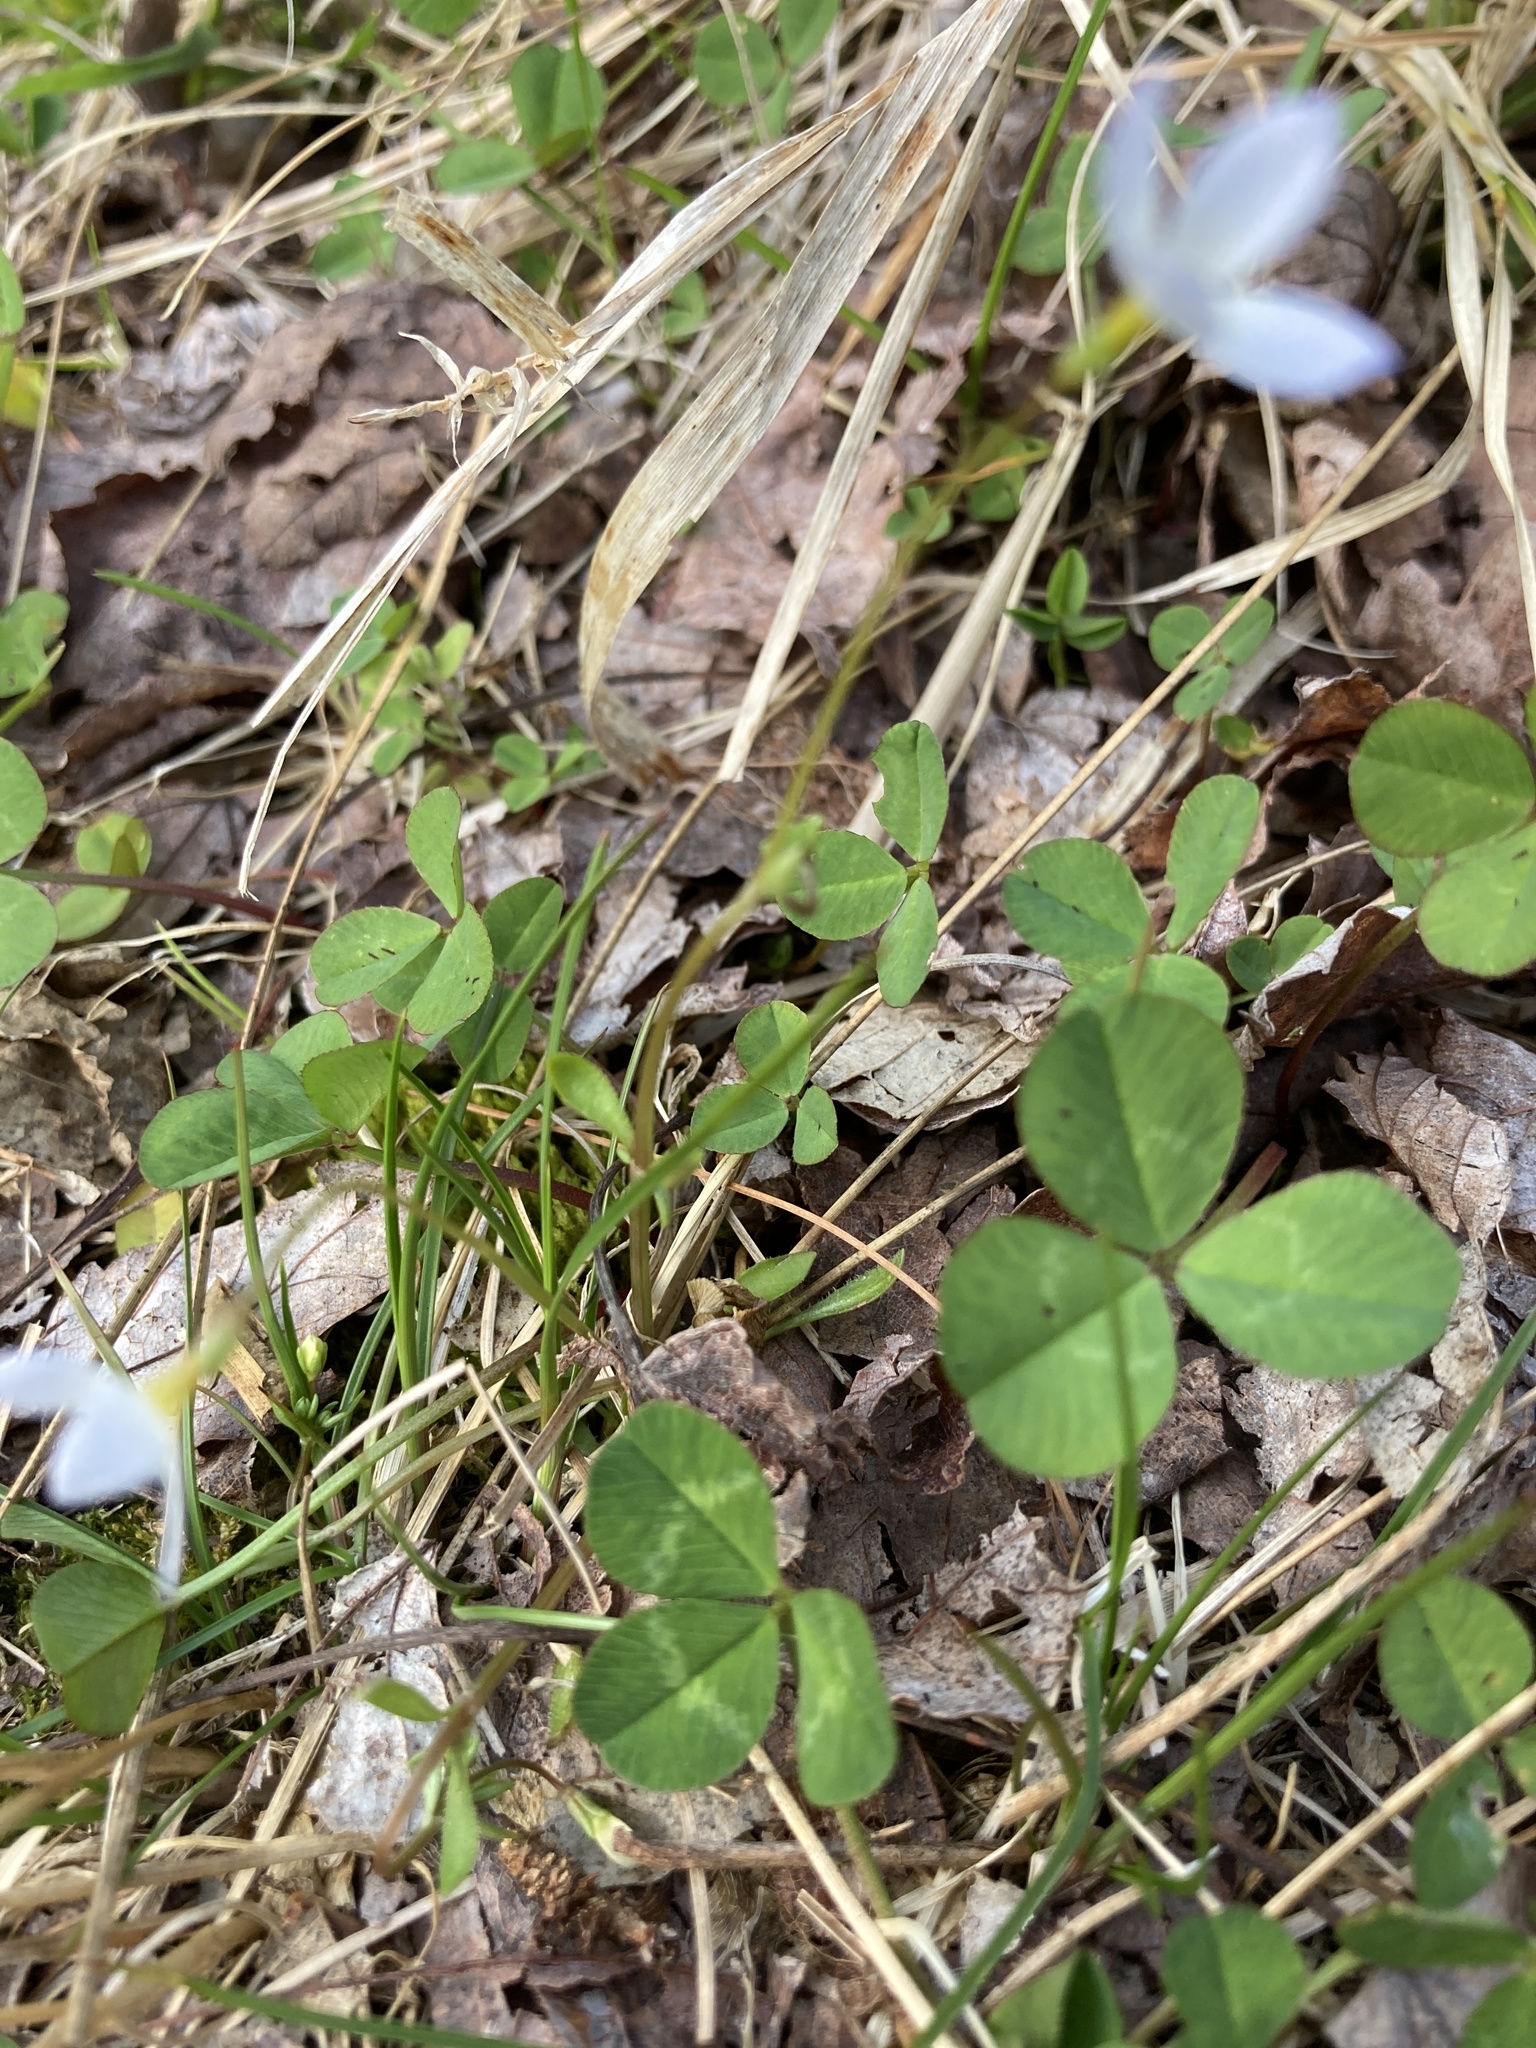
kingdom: Plantae
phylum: Tracheophyta
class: Magnoliopsida
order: Gentianales
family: Rubiaceae
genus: Houstonia
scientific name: Houstonia caerulea
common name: Bluets
